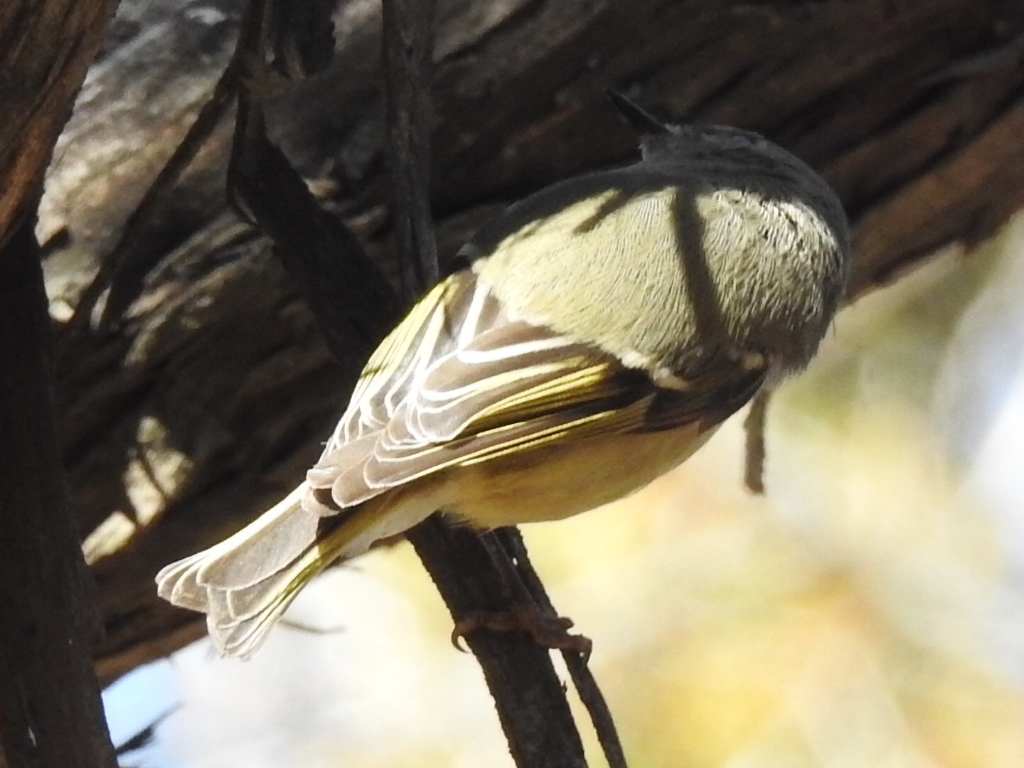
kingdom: Animalia
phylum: Chordata
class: Aves
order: Passeriformes
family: Regulidae
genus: Regulus
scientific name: Regulus calendula
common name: Ruby-crowned kinglet
